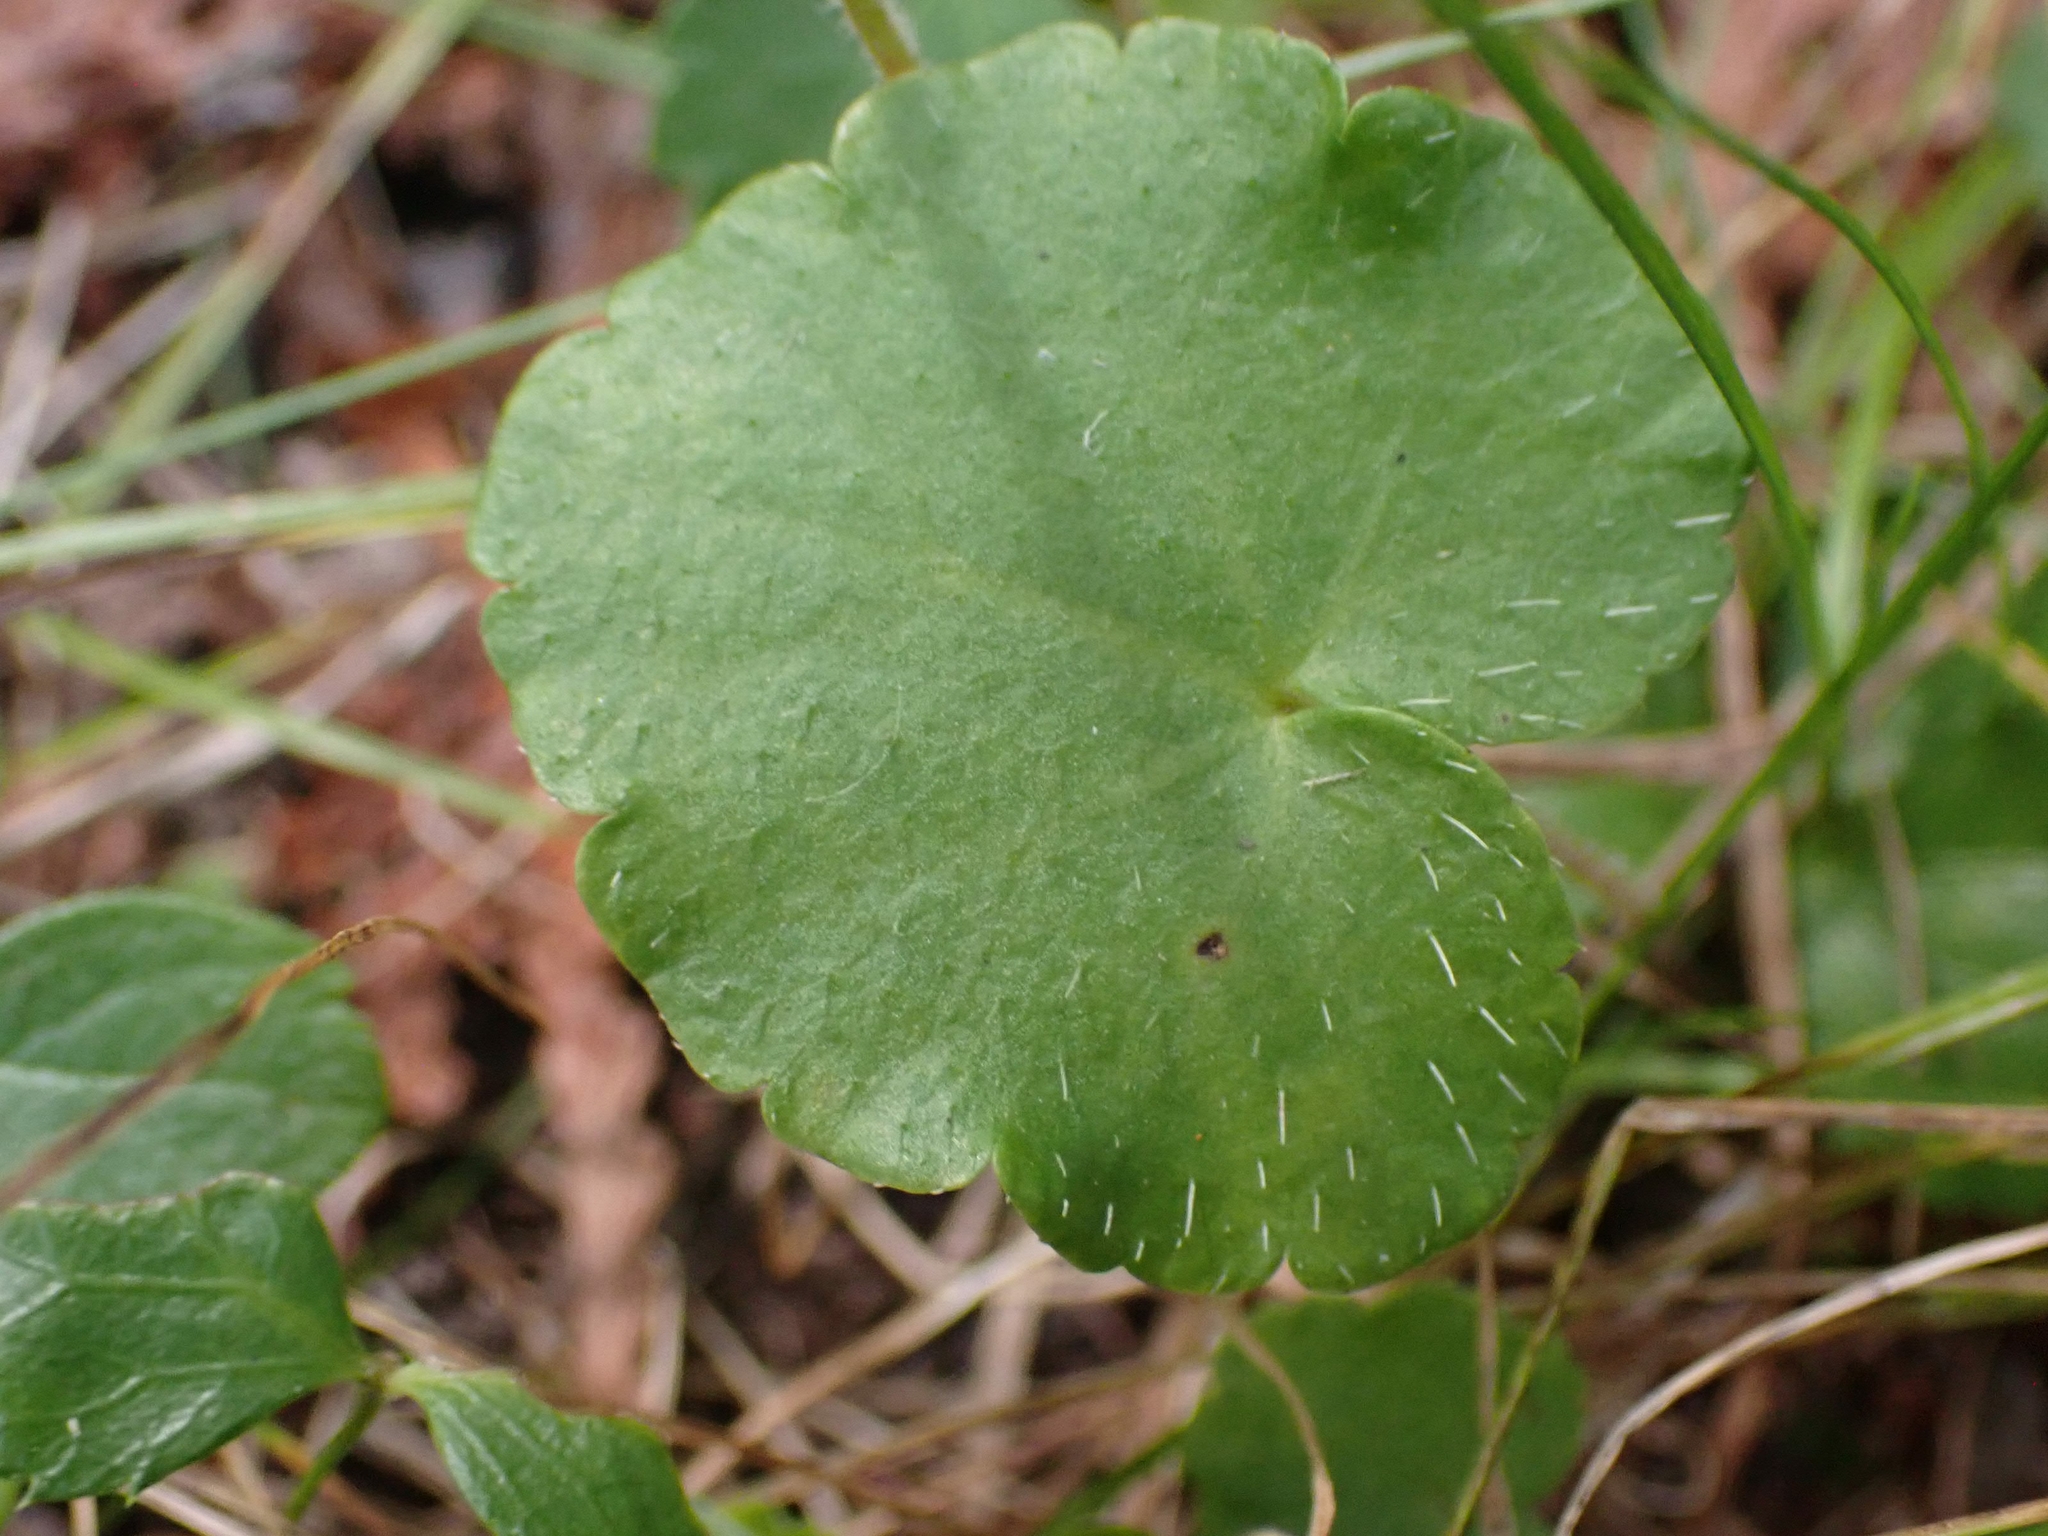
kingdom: Plantae
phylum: Tracheophyta
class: Magnoliopsida
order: Saxifragales
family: Saxifragaceae
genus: Mitella
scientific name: Mitella nuda
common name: Bare-stemmed bishop's-cap
